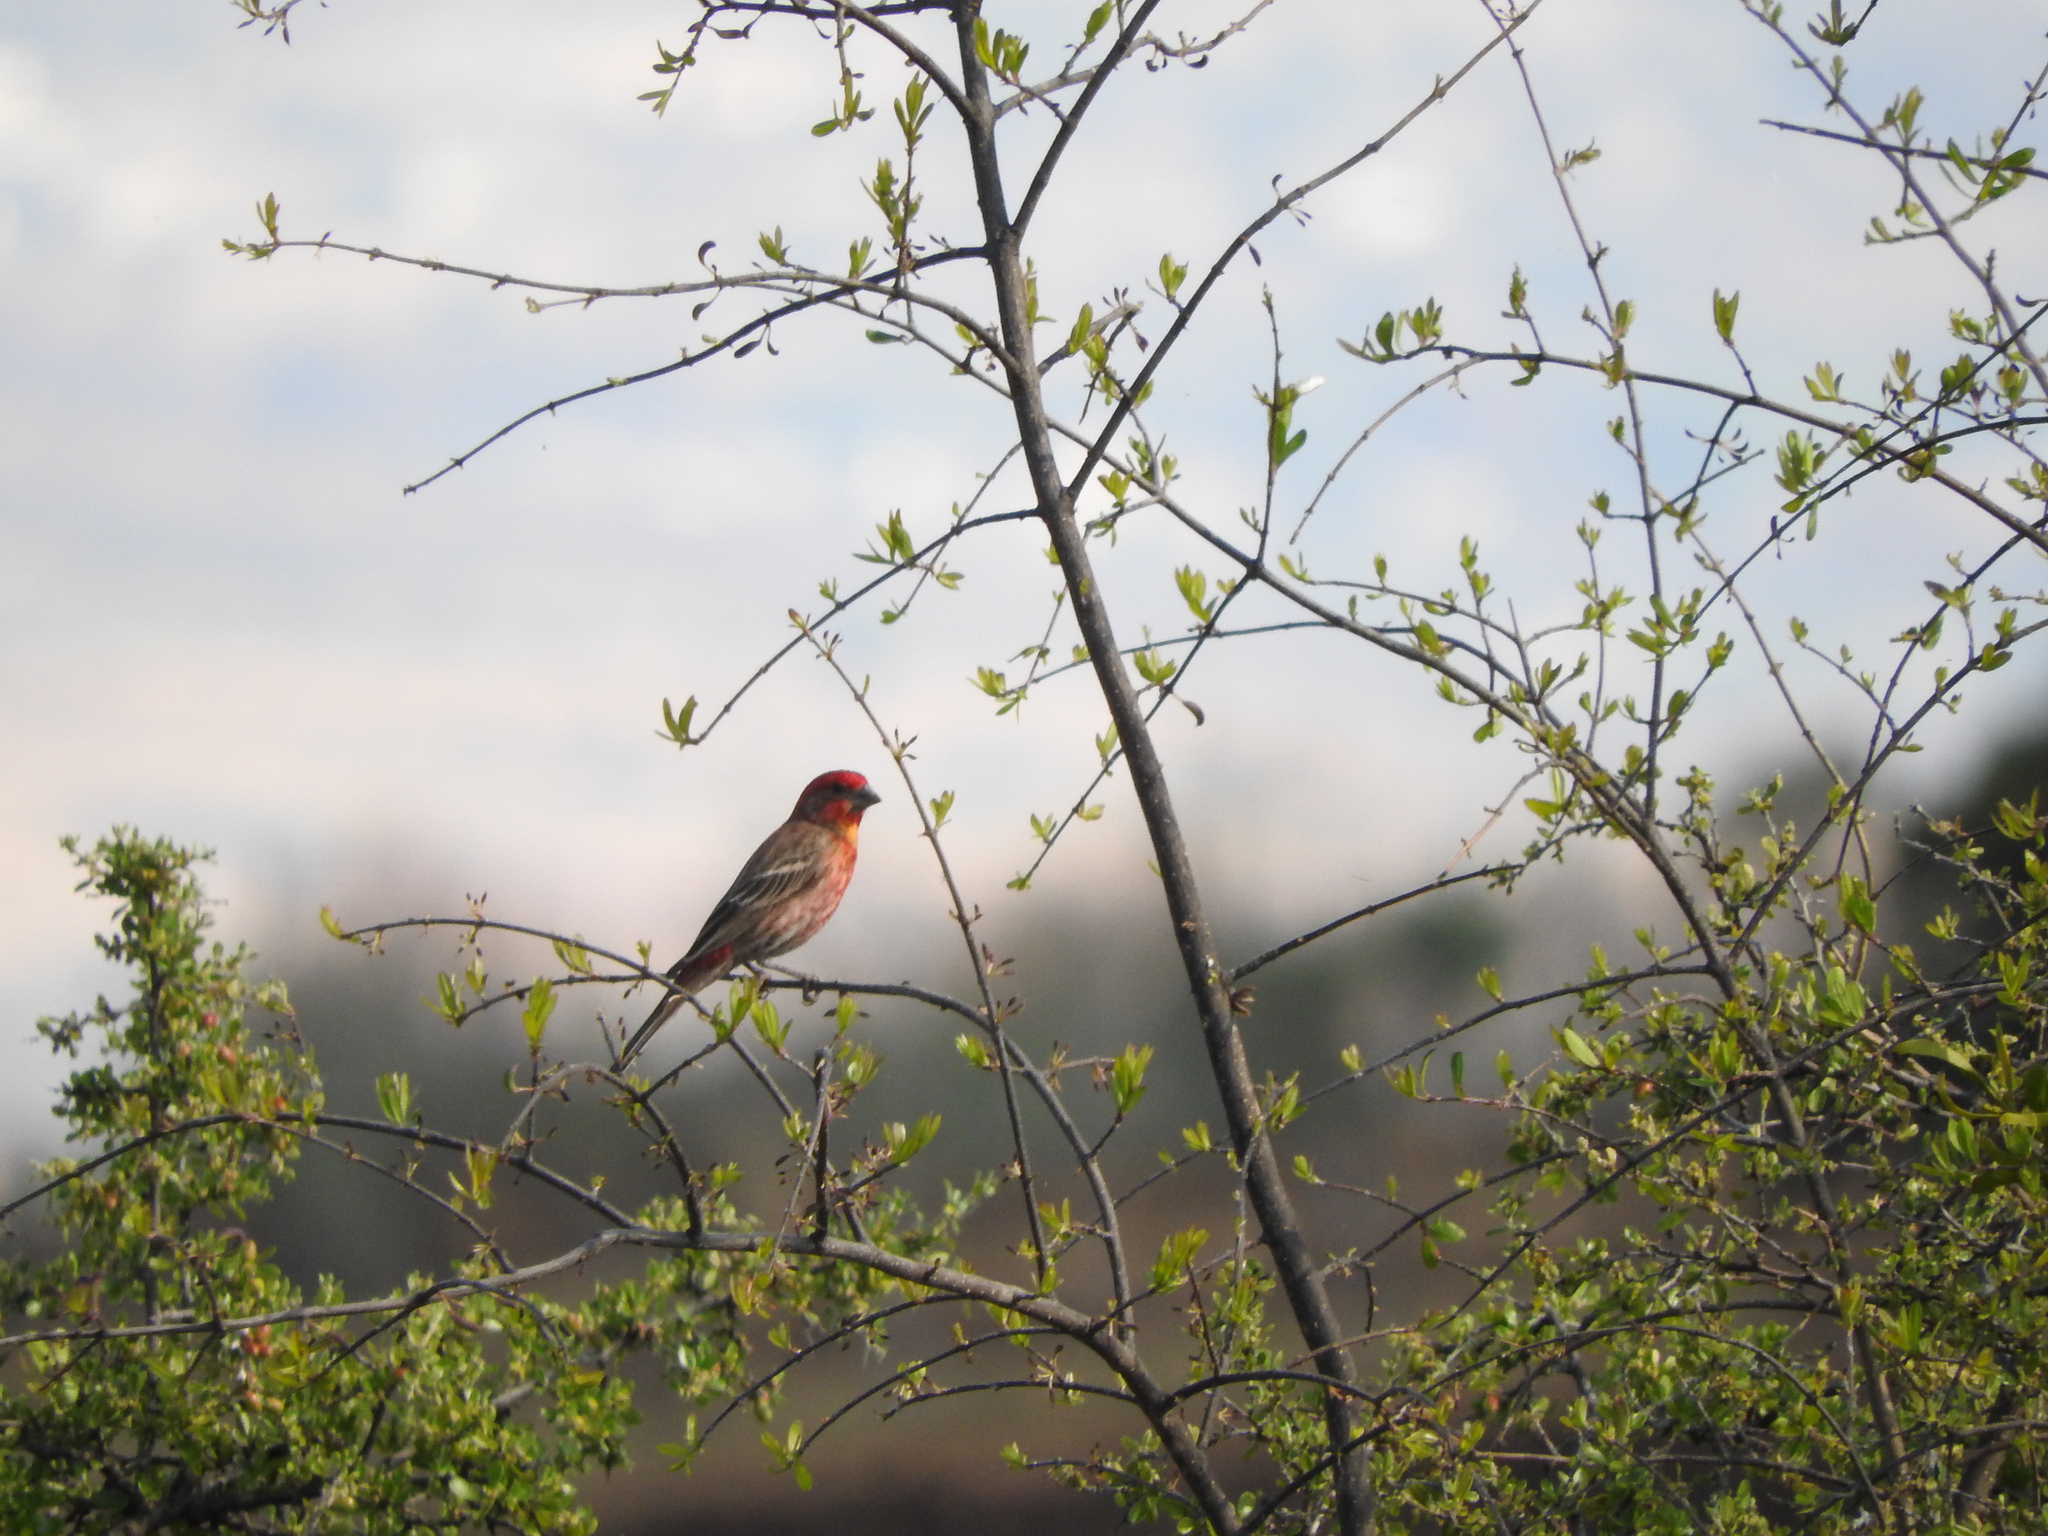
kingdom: Animalia
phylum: Chordata
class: Aves
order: Passeriformes
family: Fringillidae
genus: Haemorhous
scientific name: Haemorhous mexicanus
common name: House finch
